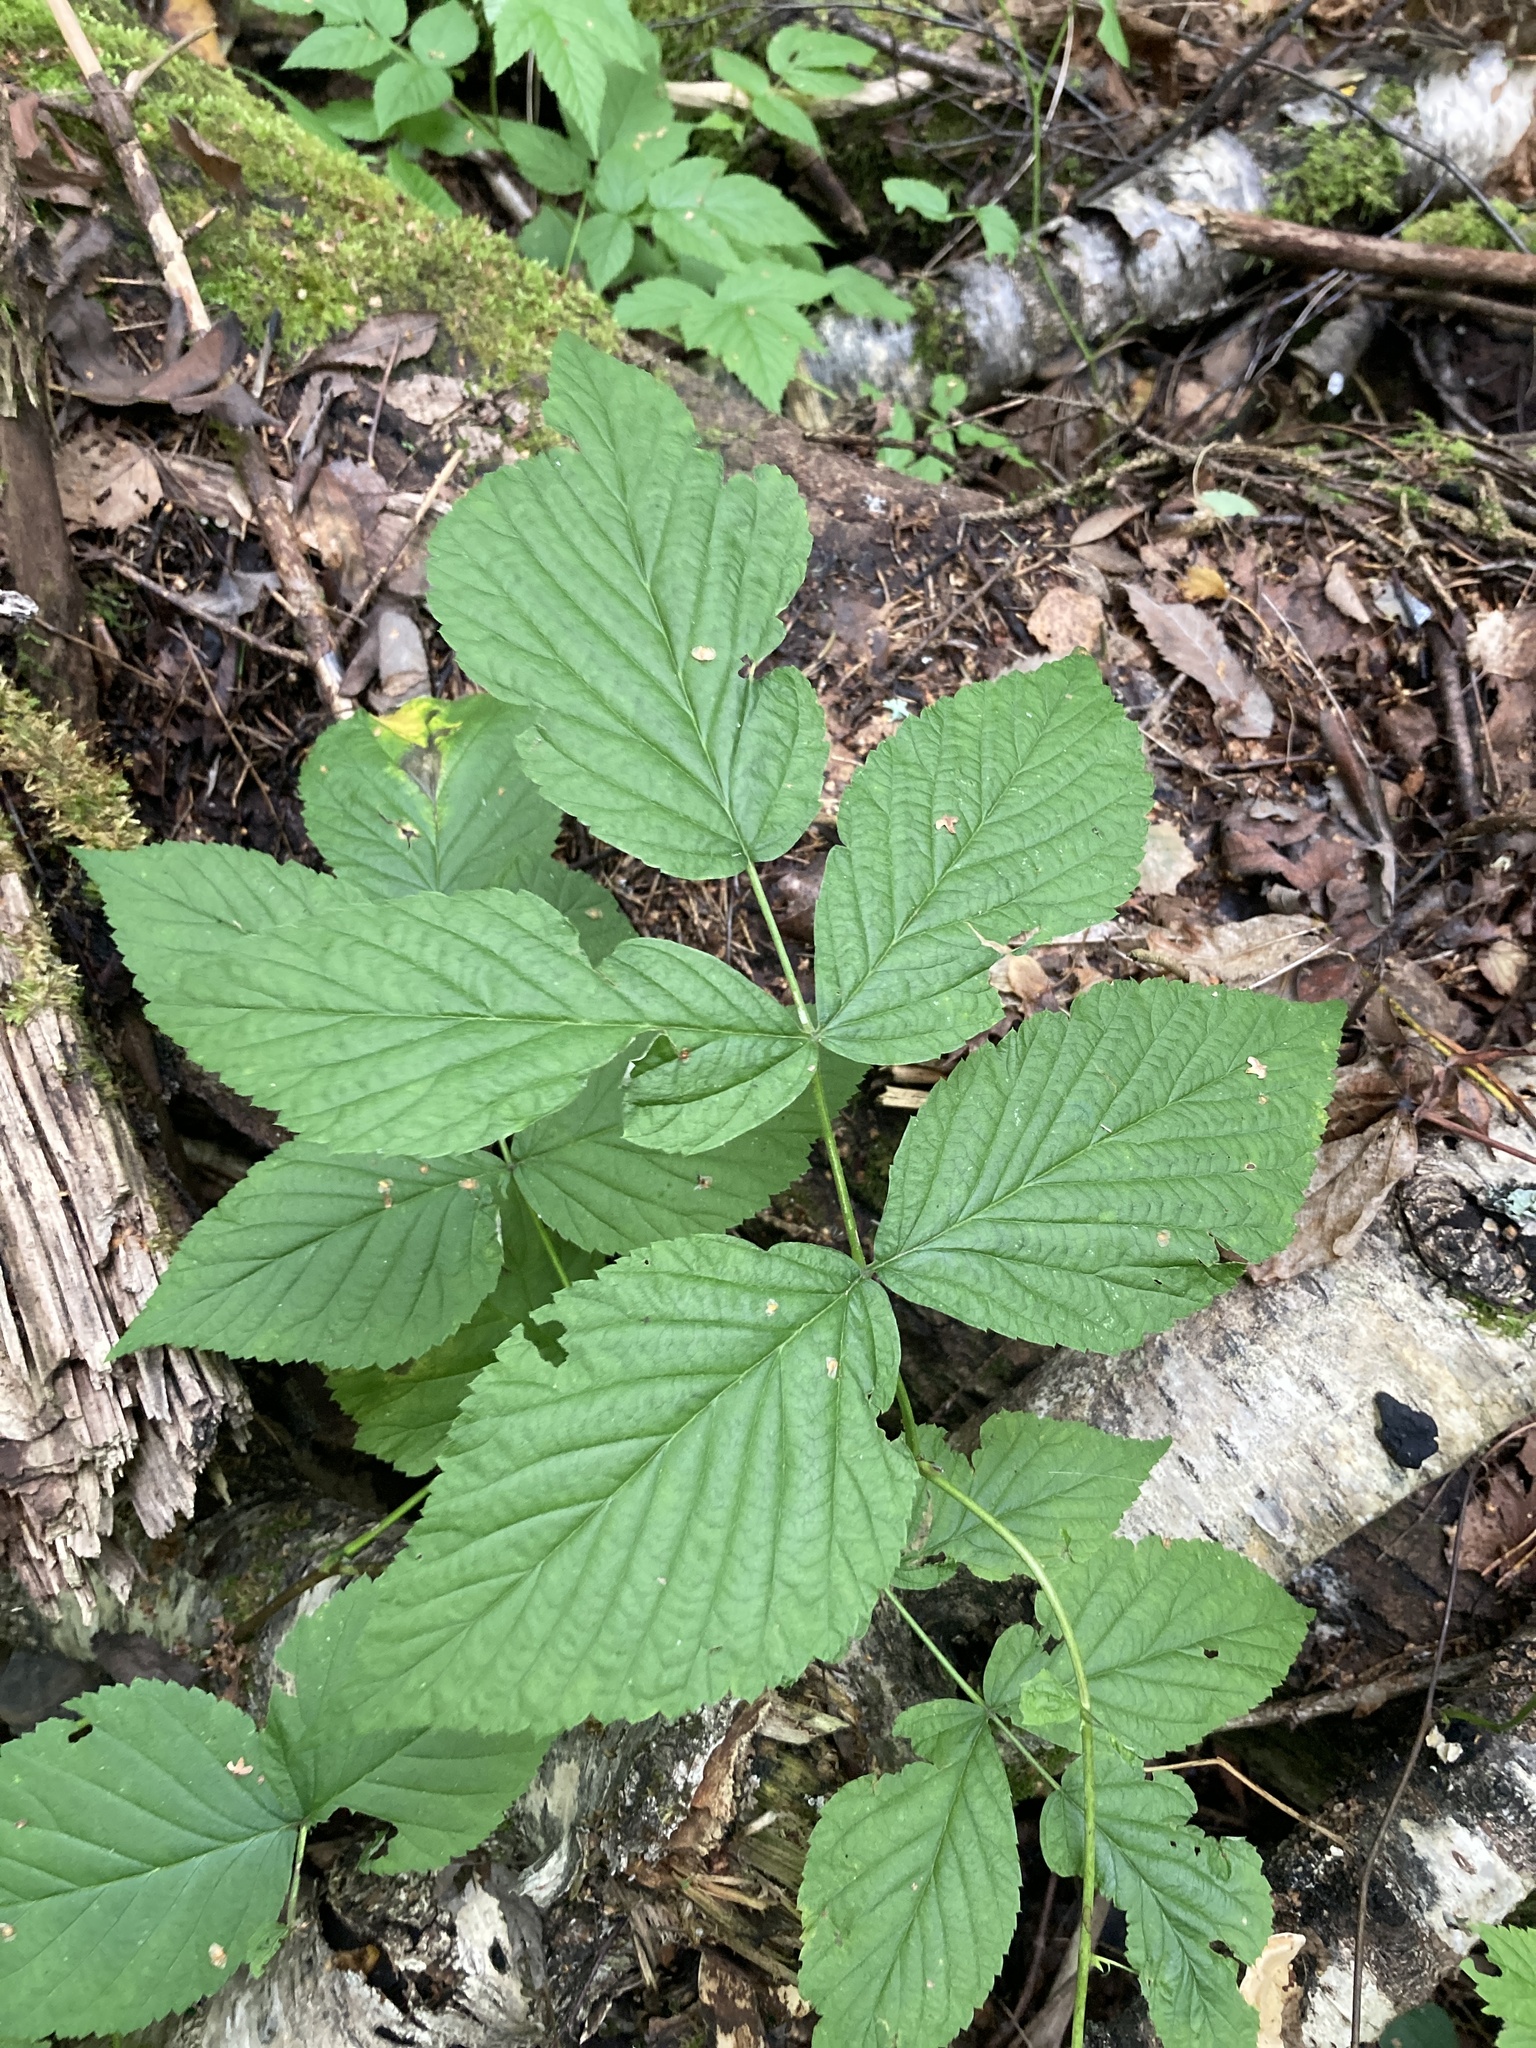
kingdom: Plantae
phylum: Tracheophyta
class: Magnoliopsida
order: Rosales
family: Rosaceae
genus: Rubus
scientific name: Rubus idaeus
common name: Raspberry
